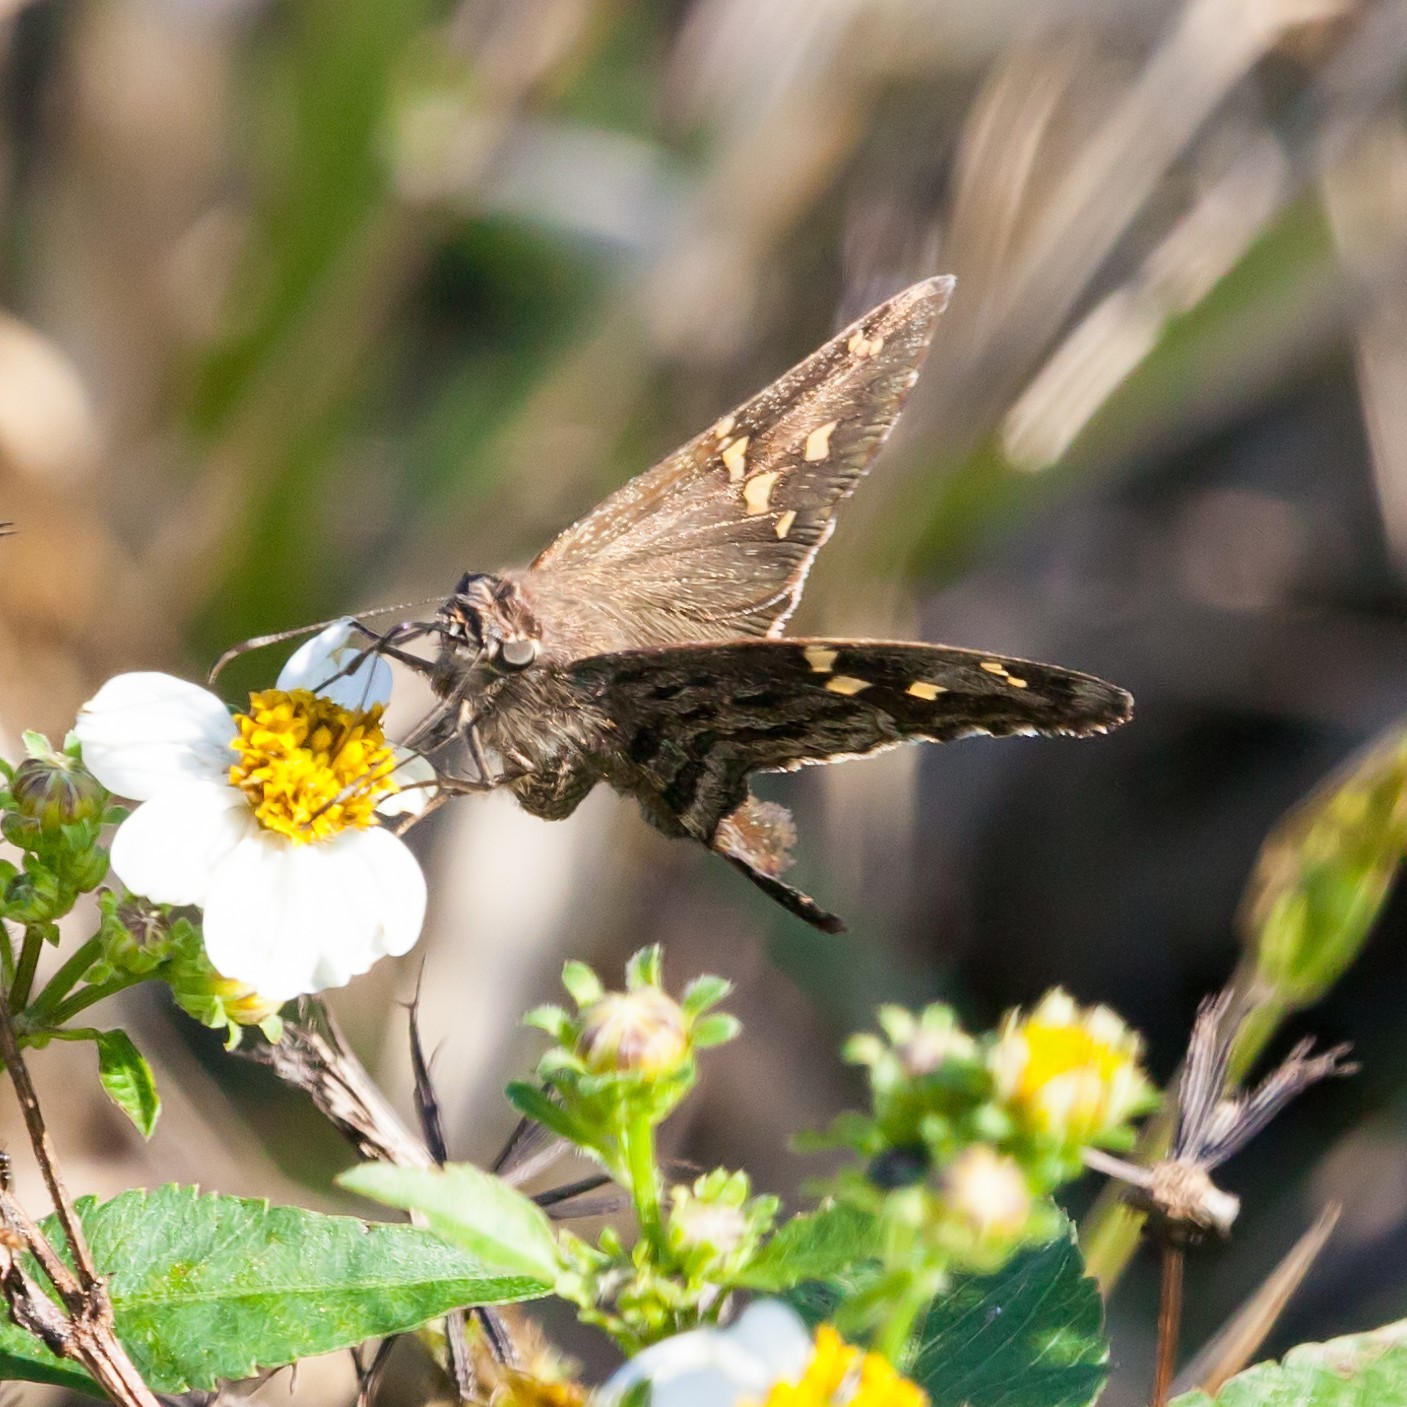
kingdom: Animalia
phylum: Arthropoda
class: Insecta
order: Lepidoptera
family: Hesperiidae
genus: Thorybes
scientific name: Thorybes
